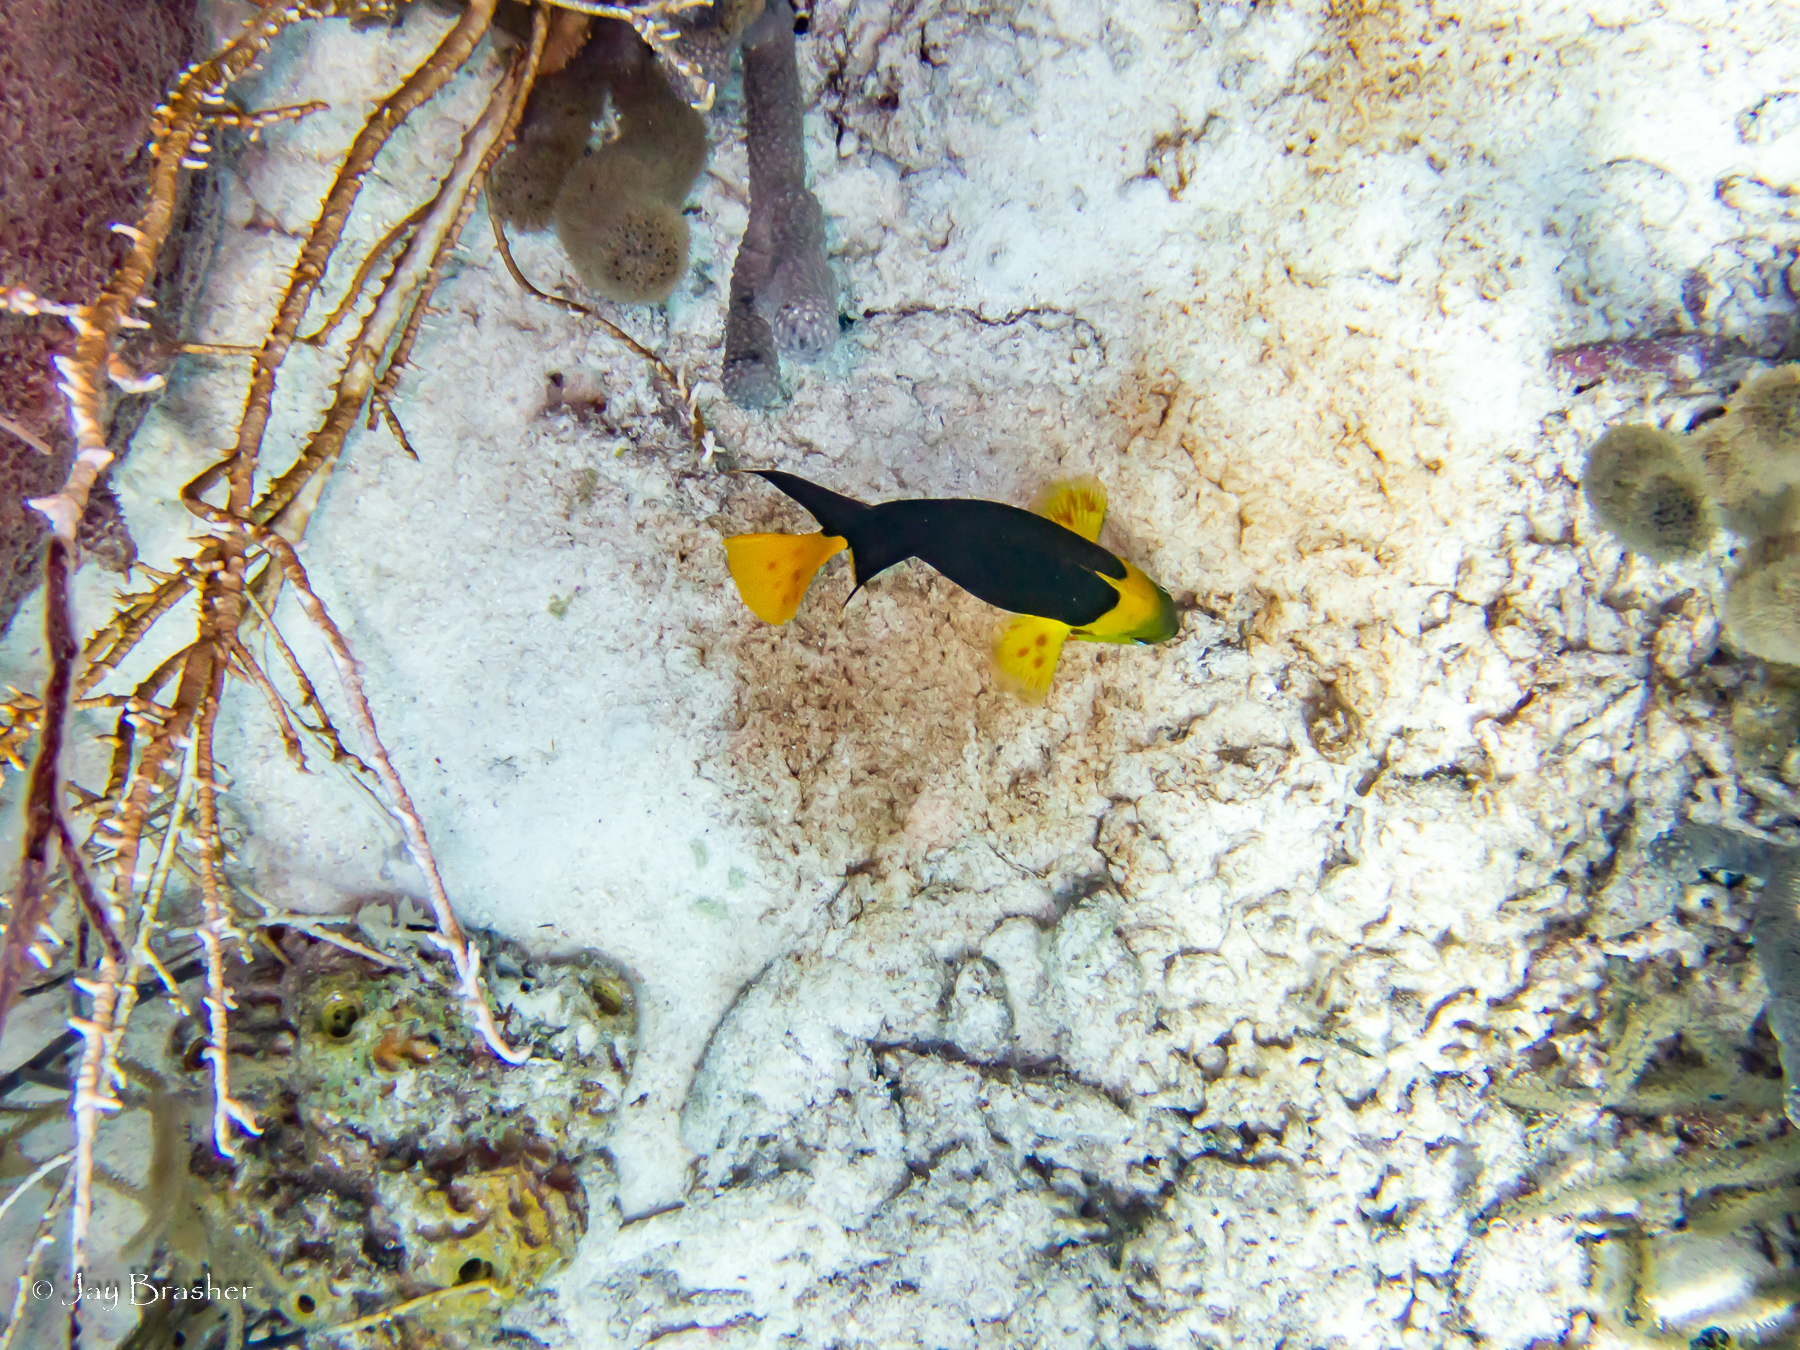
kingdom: Animalia
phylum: Chordata
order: Perciformes
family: Pomacanthidae
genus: Holacanthus
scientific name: Holacanthus tricolor
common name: Rock beauty
